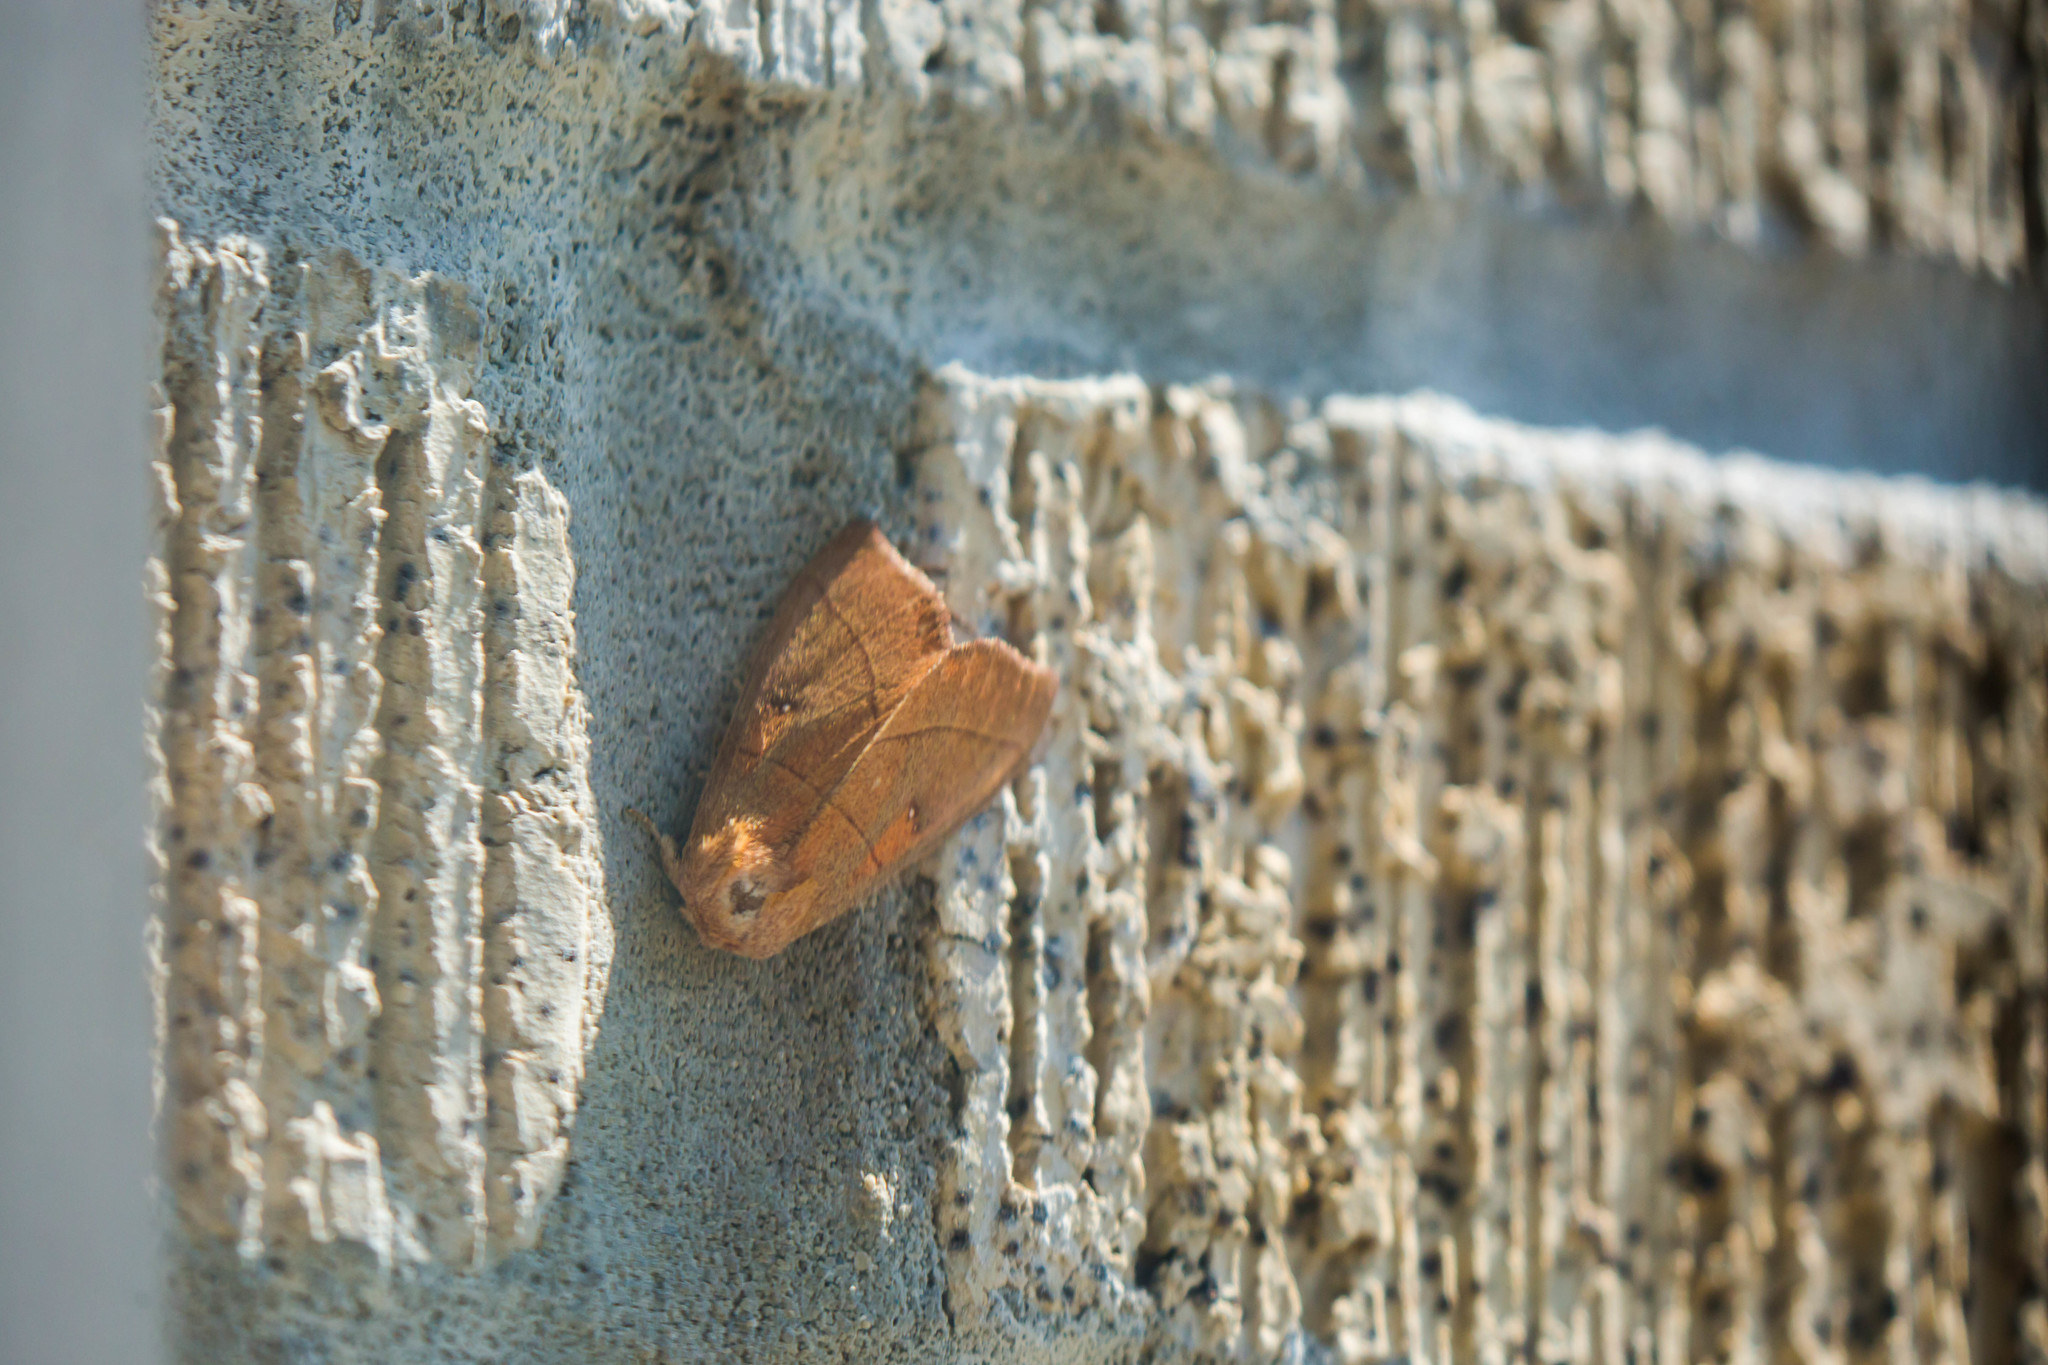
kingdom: Animalia
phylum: Arthropoda
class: Insecta
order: Lepidoptera
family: Notodontidae
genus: Nadata
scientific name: Nadata gibbosa
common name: White-dotted prominent
